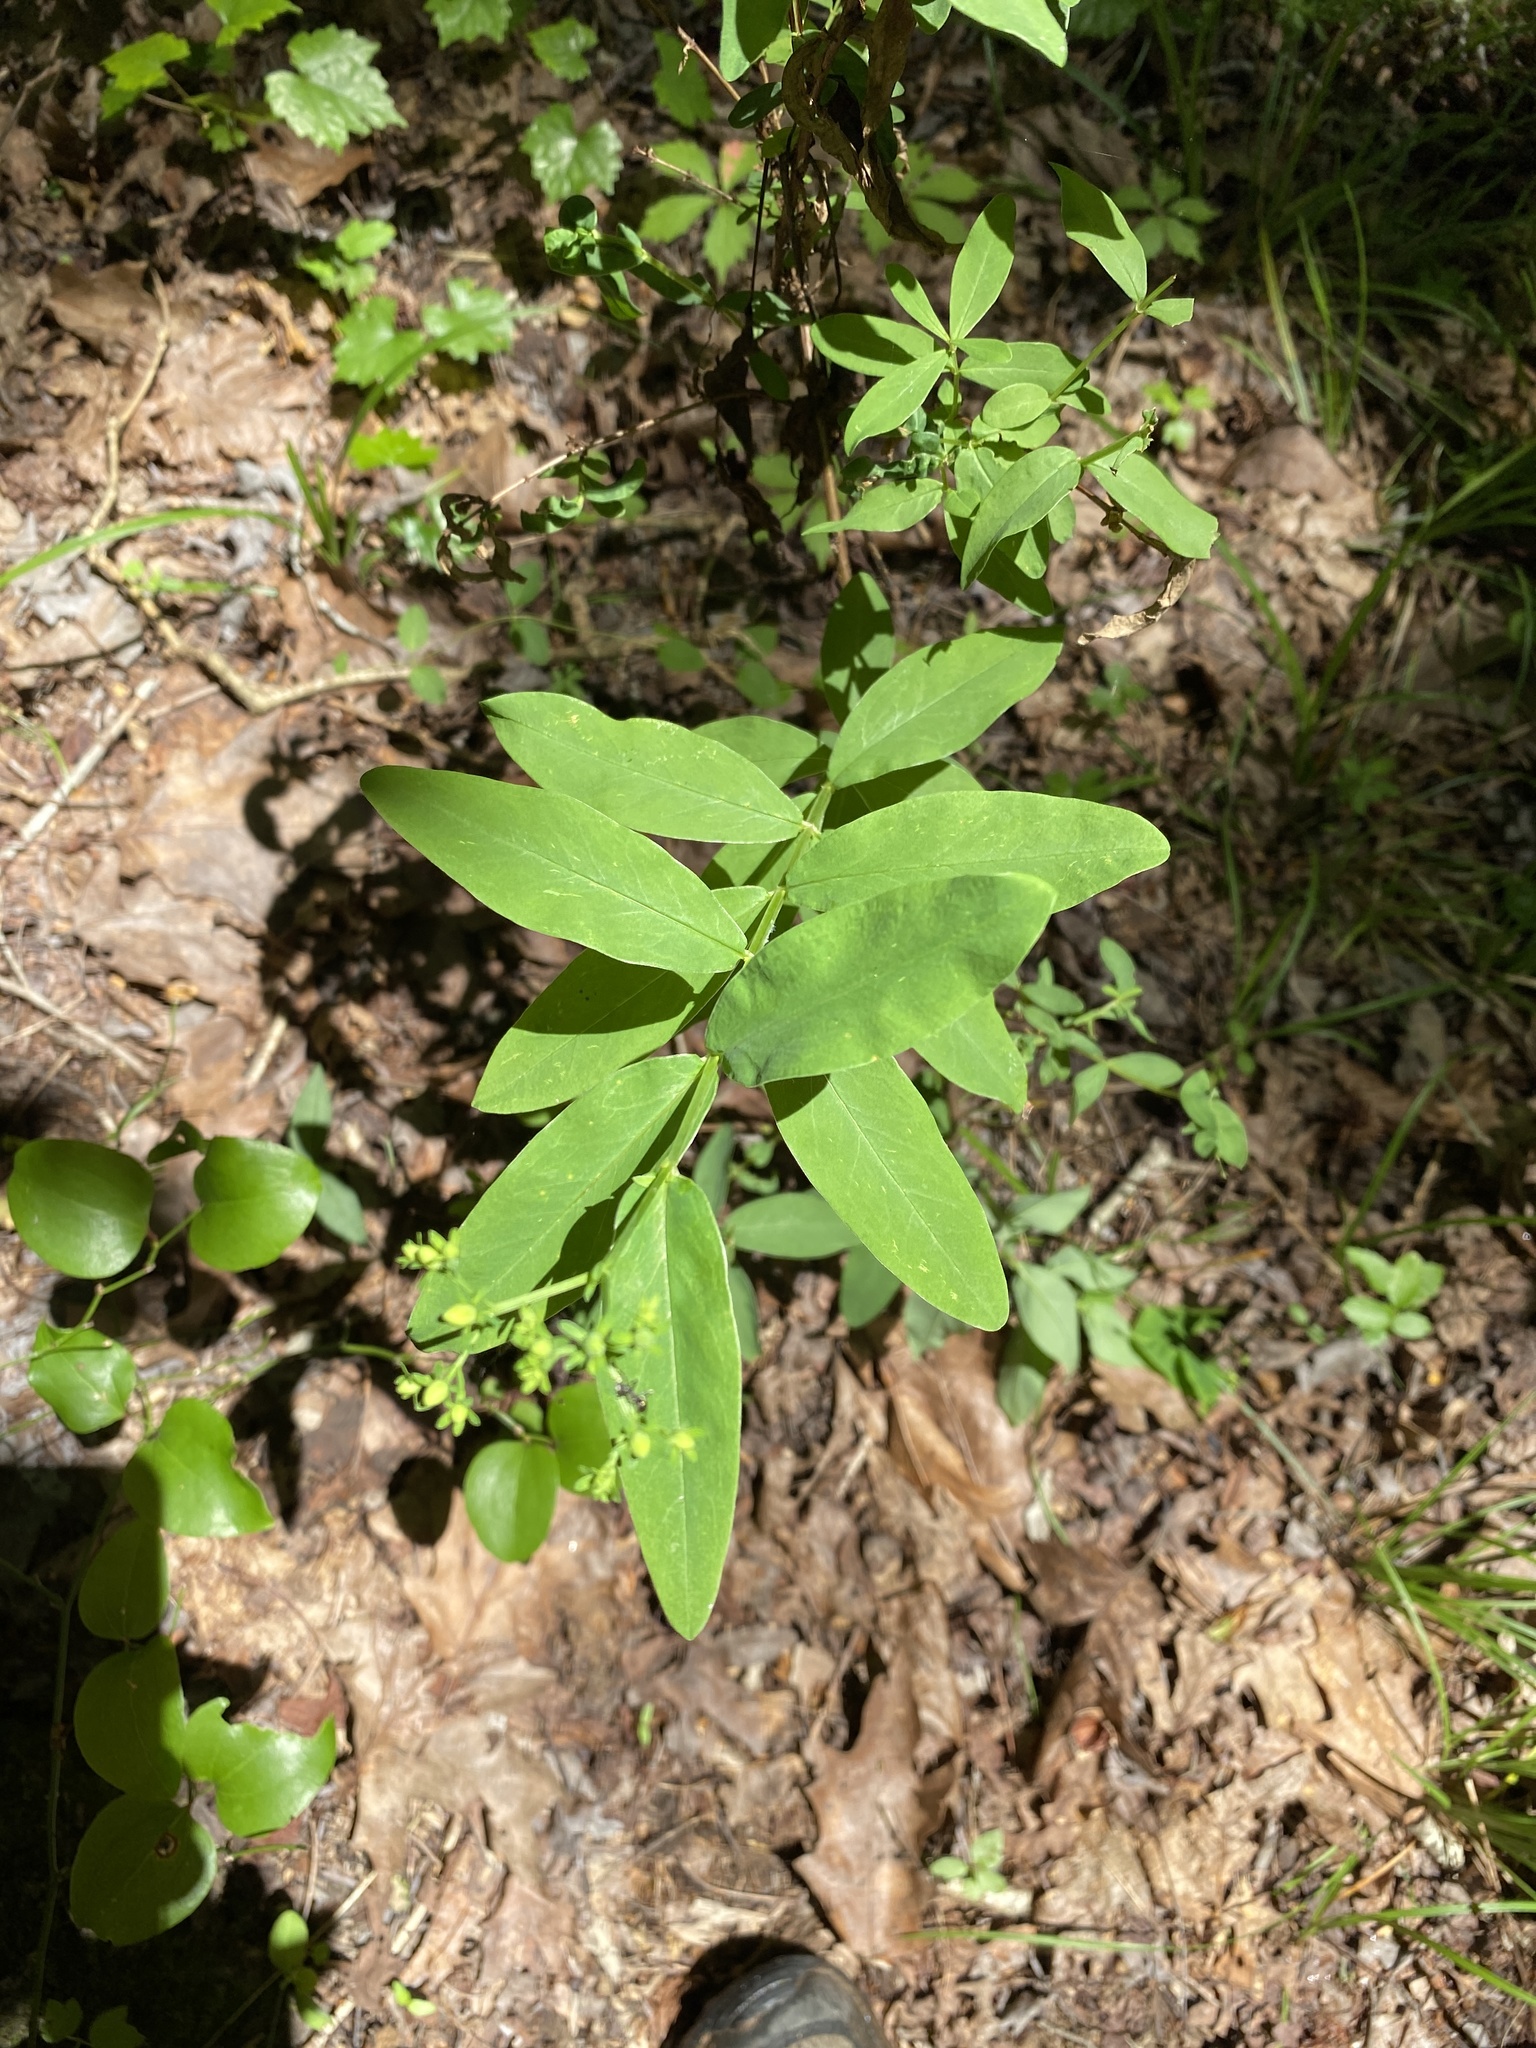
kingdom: Plantae
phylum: Tracheophyta
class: Magnoliopsida
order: Malpighiales
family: Hypericaceae
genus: Hypericum
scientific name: Hypericum nudiflorum
